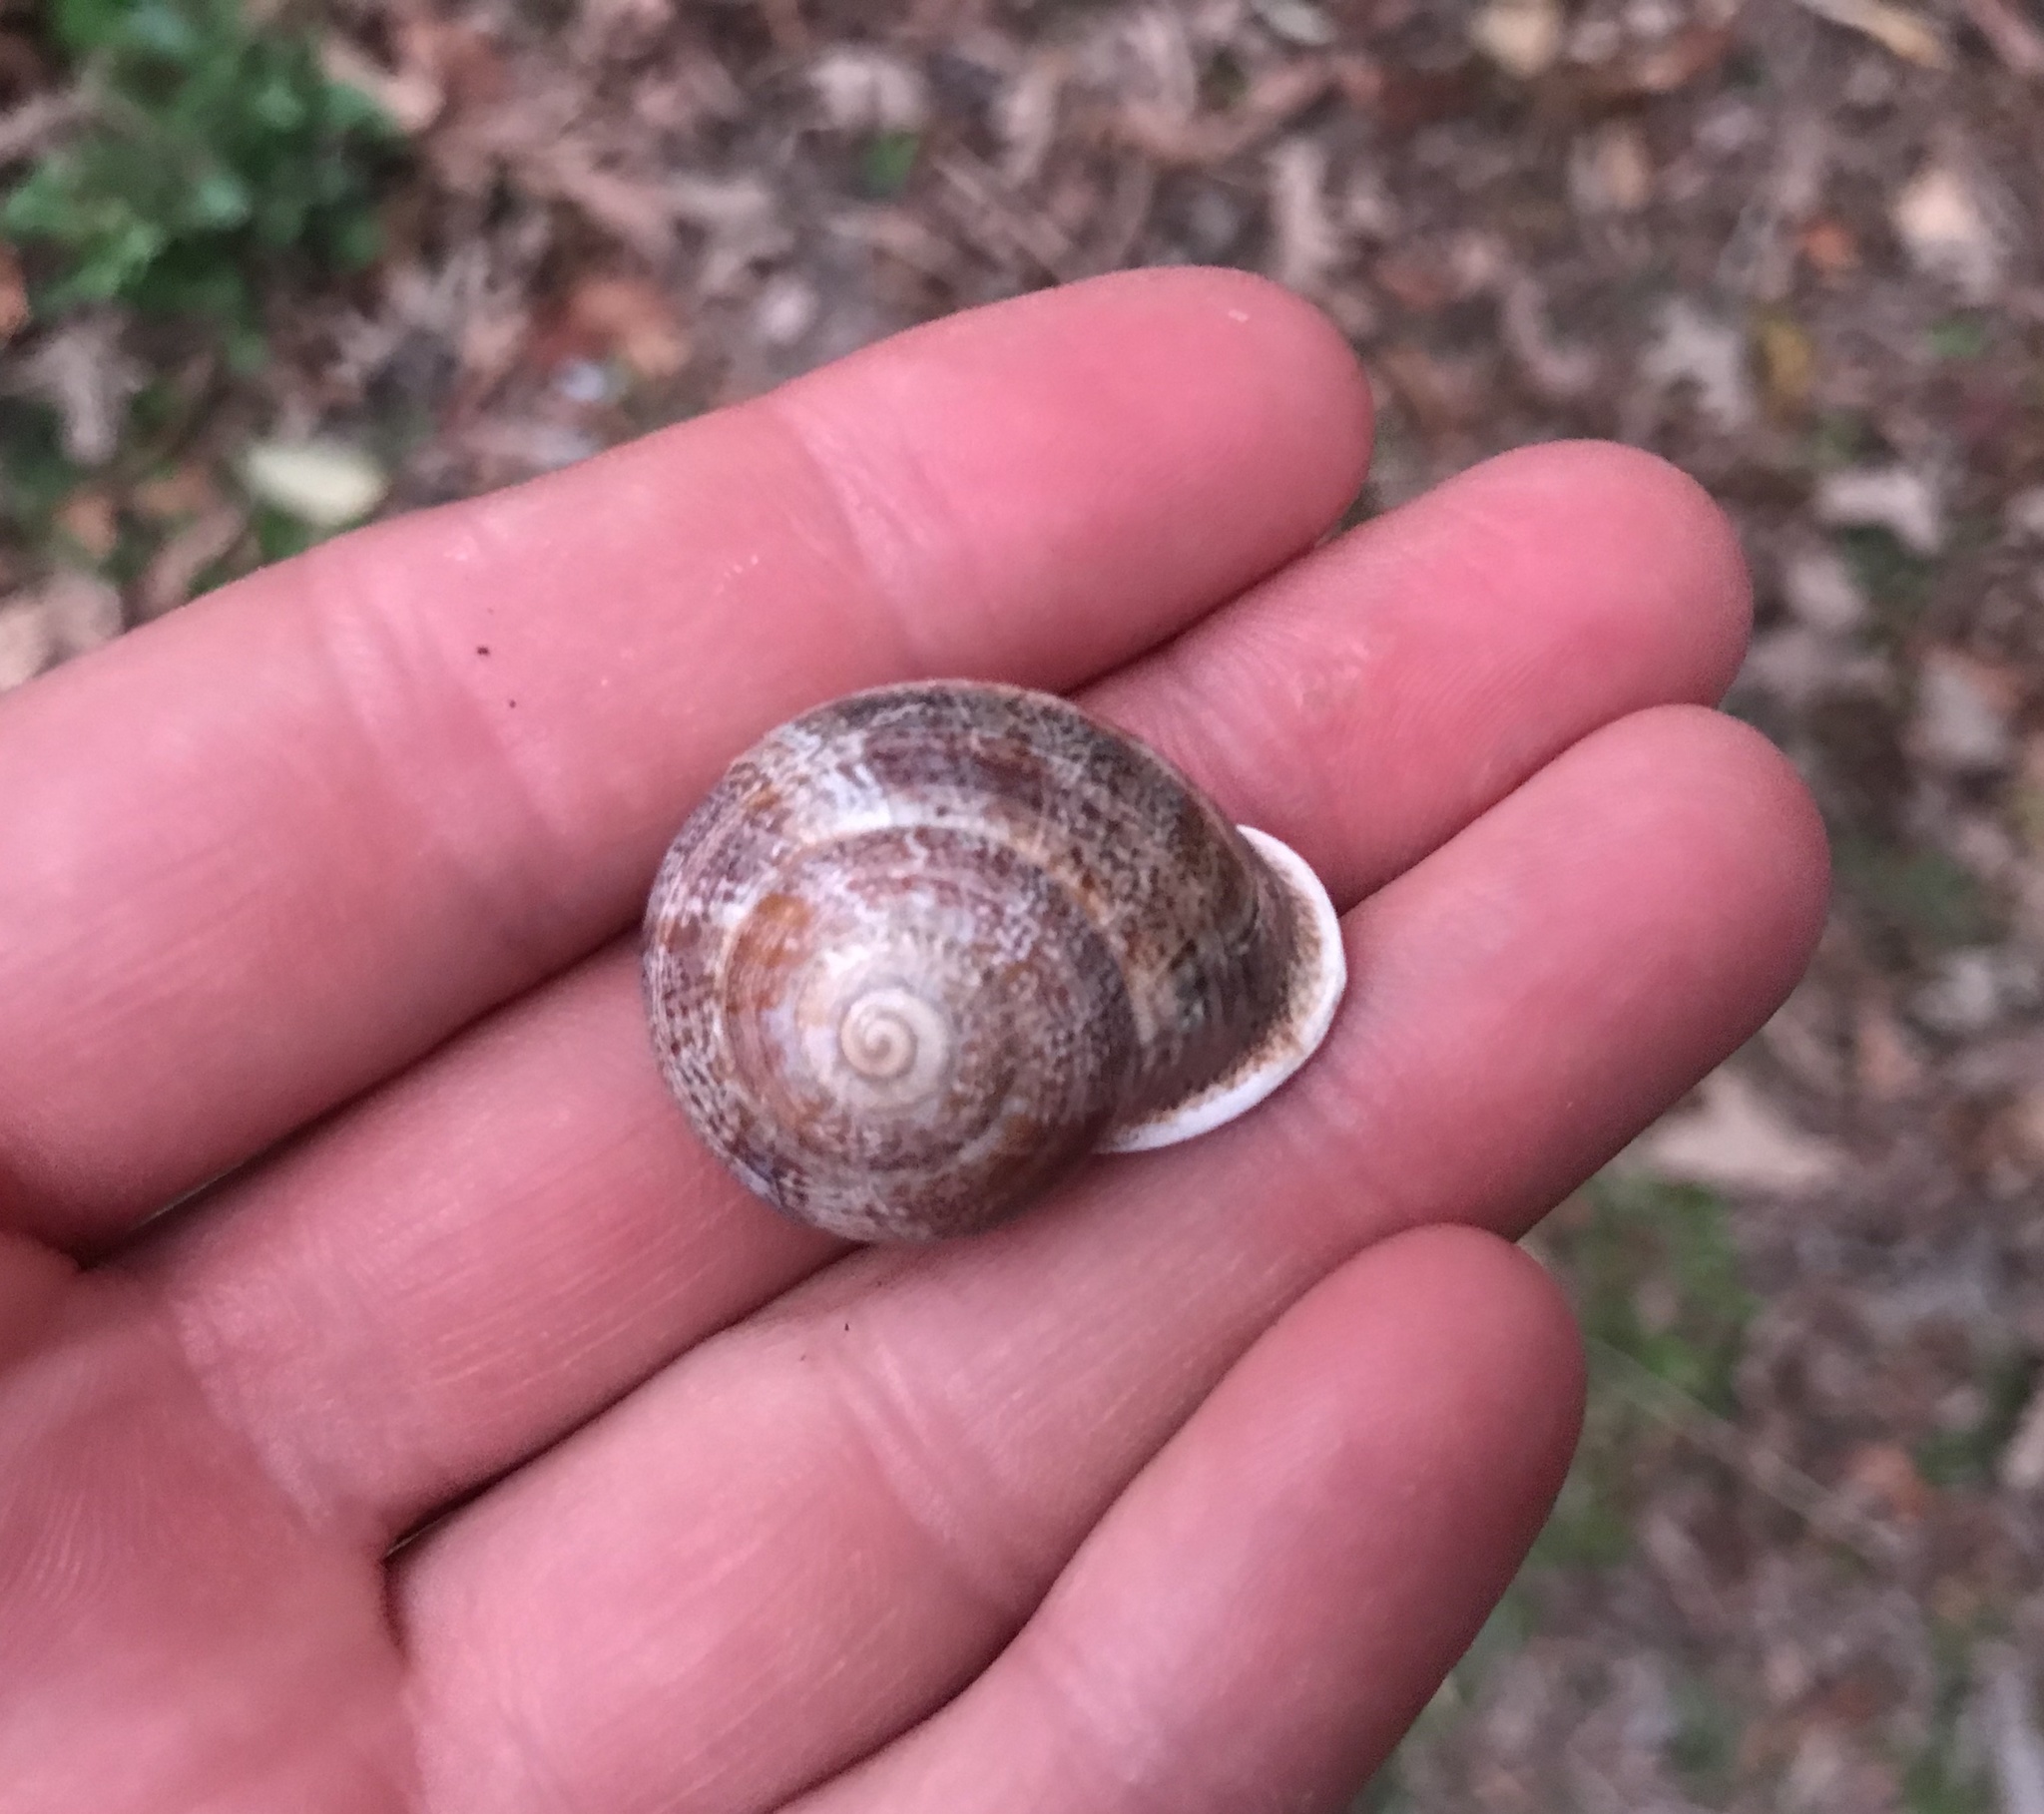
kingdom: Animalia
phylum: Mollusca
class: Gastropoda
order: Stylommatophora
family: Helicidae
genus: Otala
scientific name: Otala lactea
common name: Milk snail
